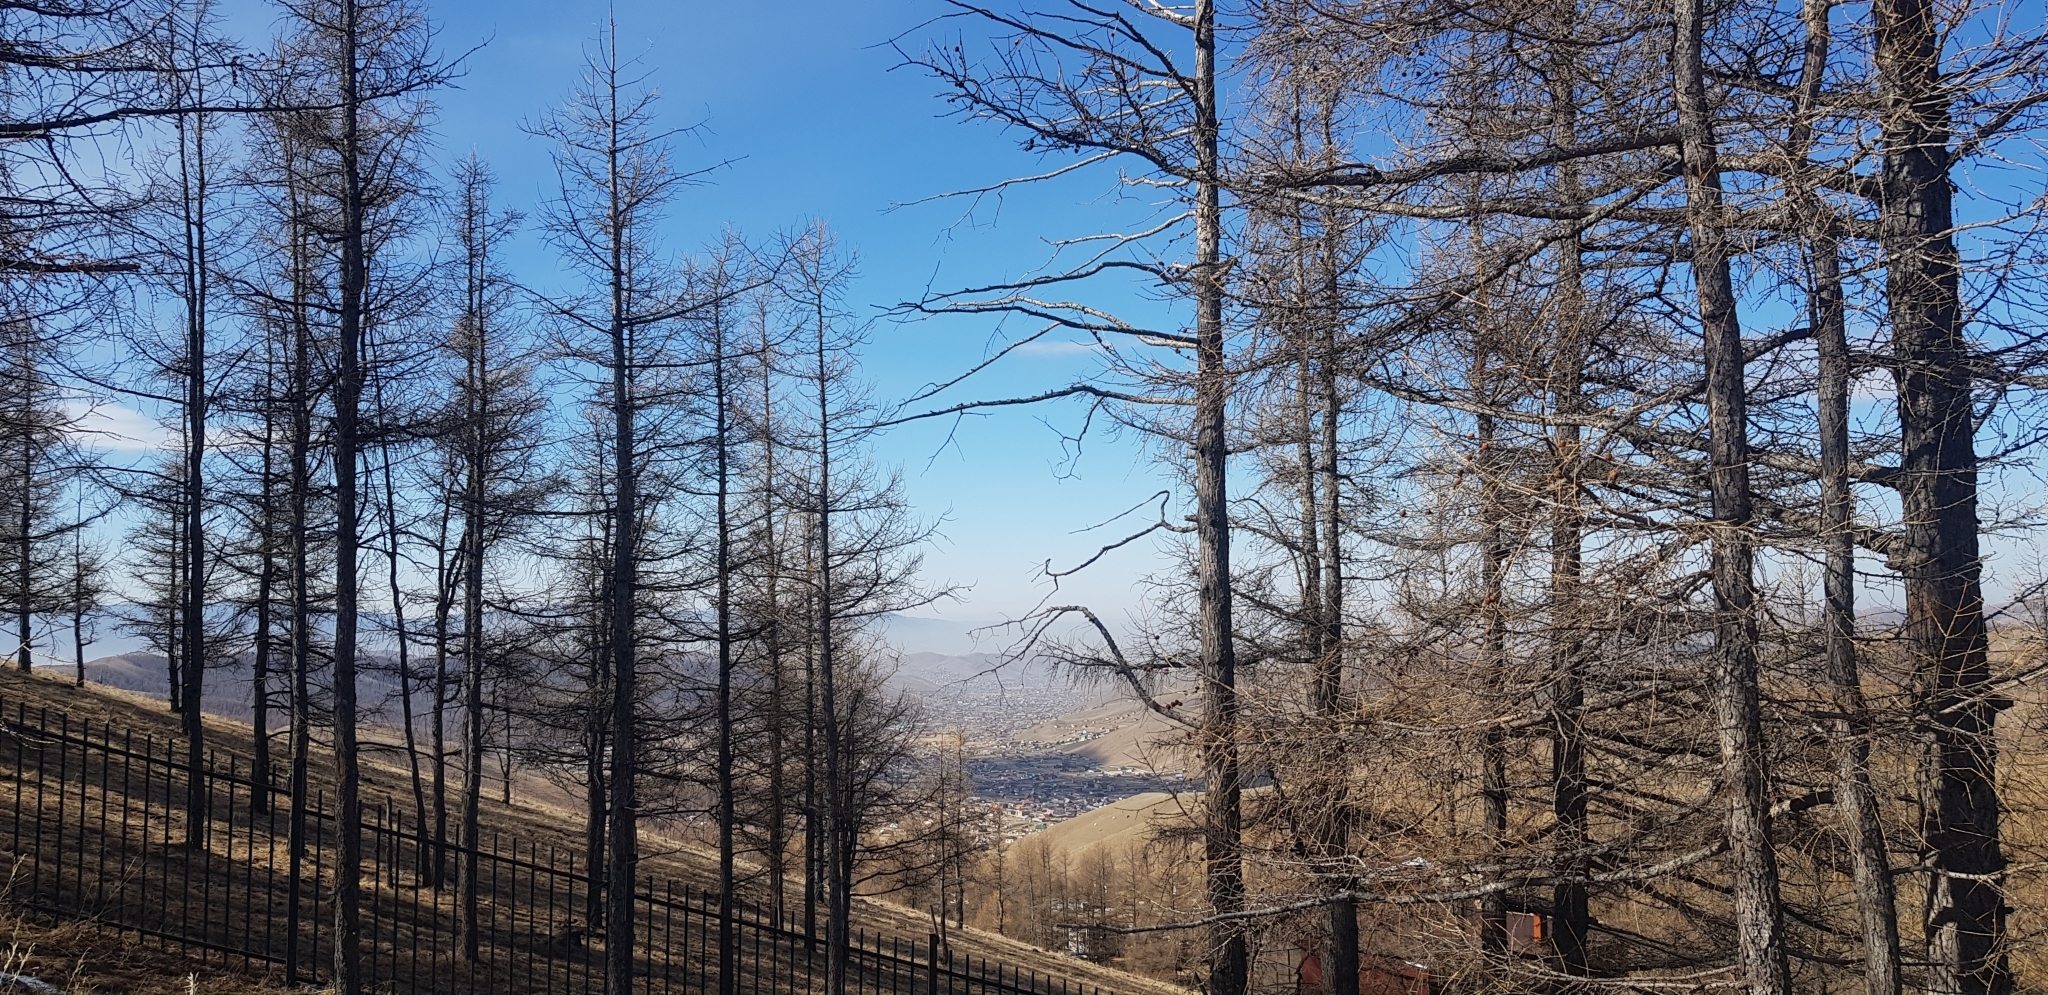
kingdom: Plantae
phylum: Tracheophyta
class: Pinopsida
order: Pinales
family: Pinaceae
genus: Larix
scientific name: Larix sibirica
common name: Siberian larch
